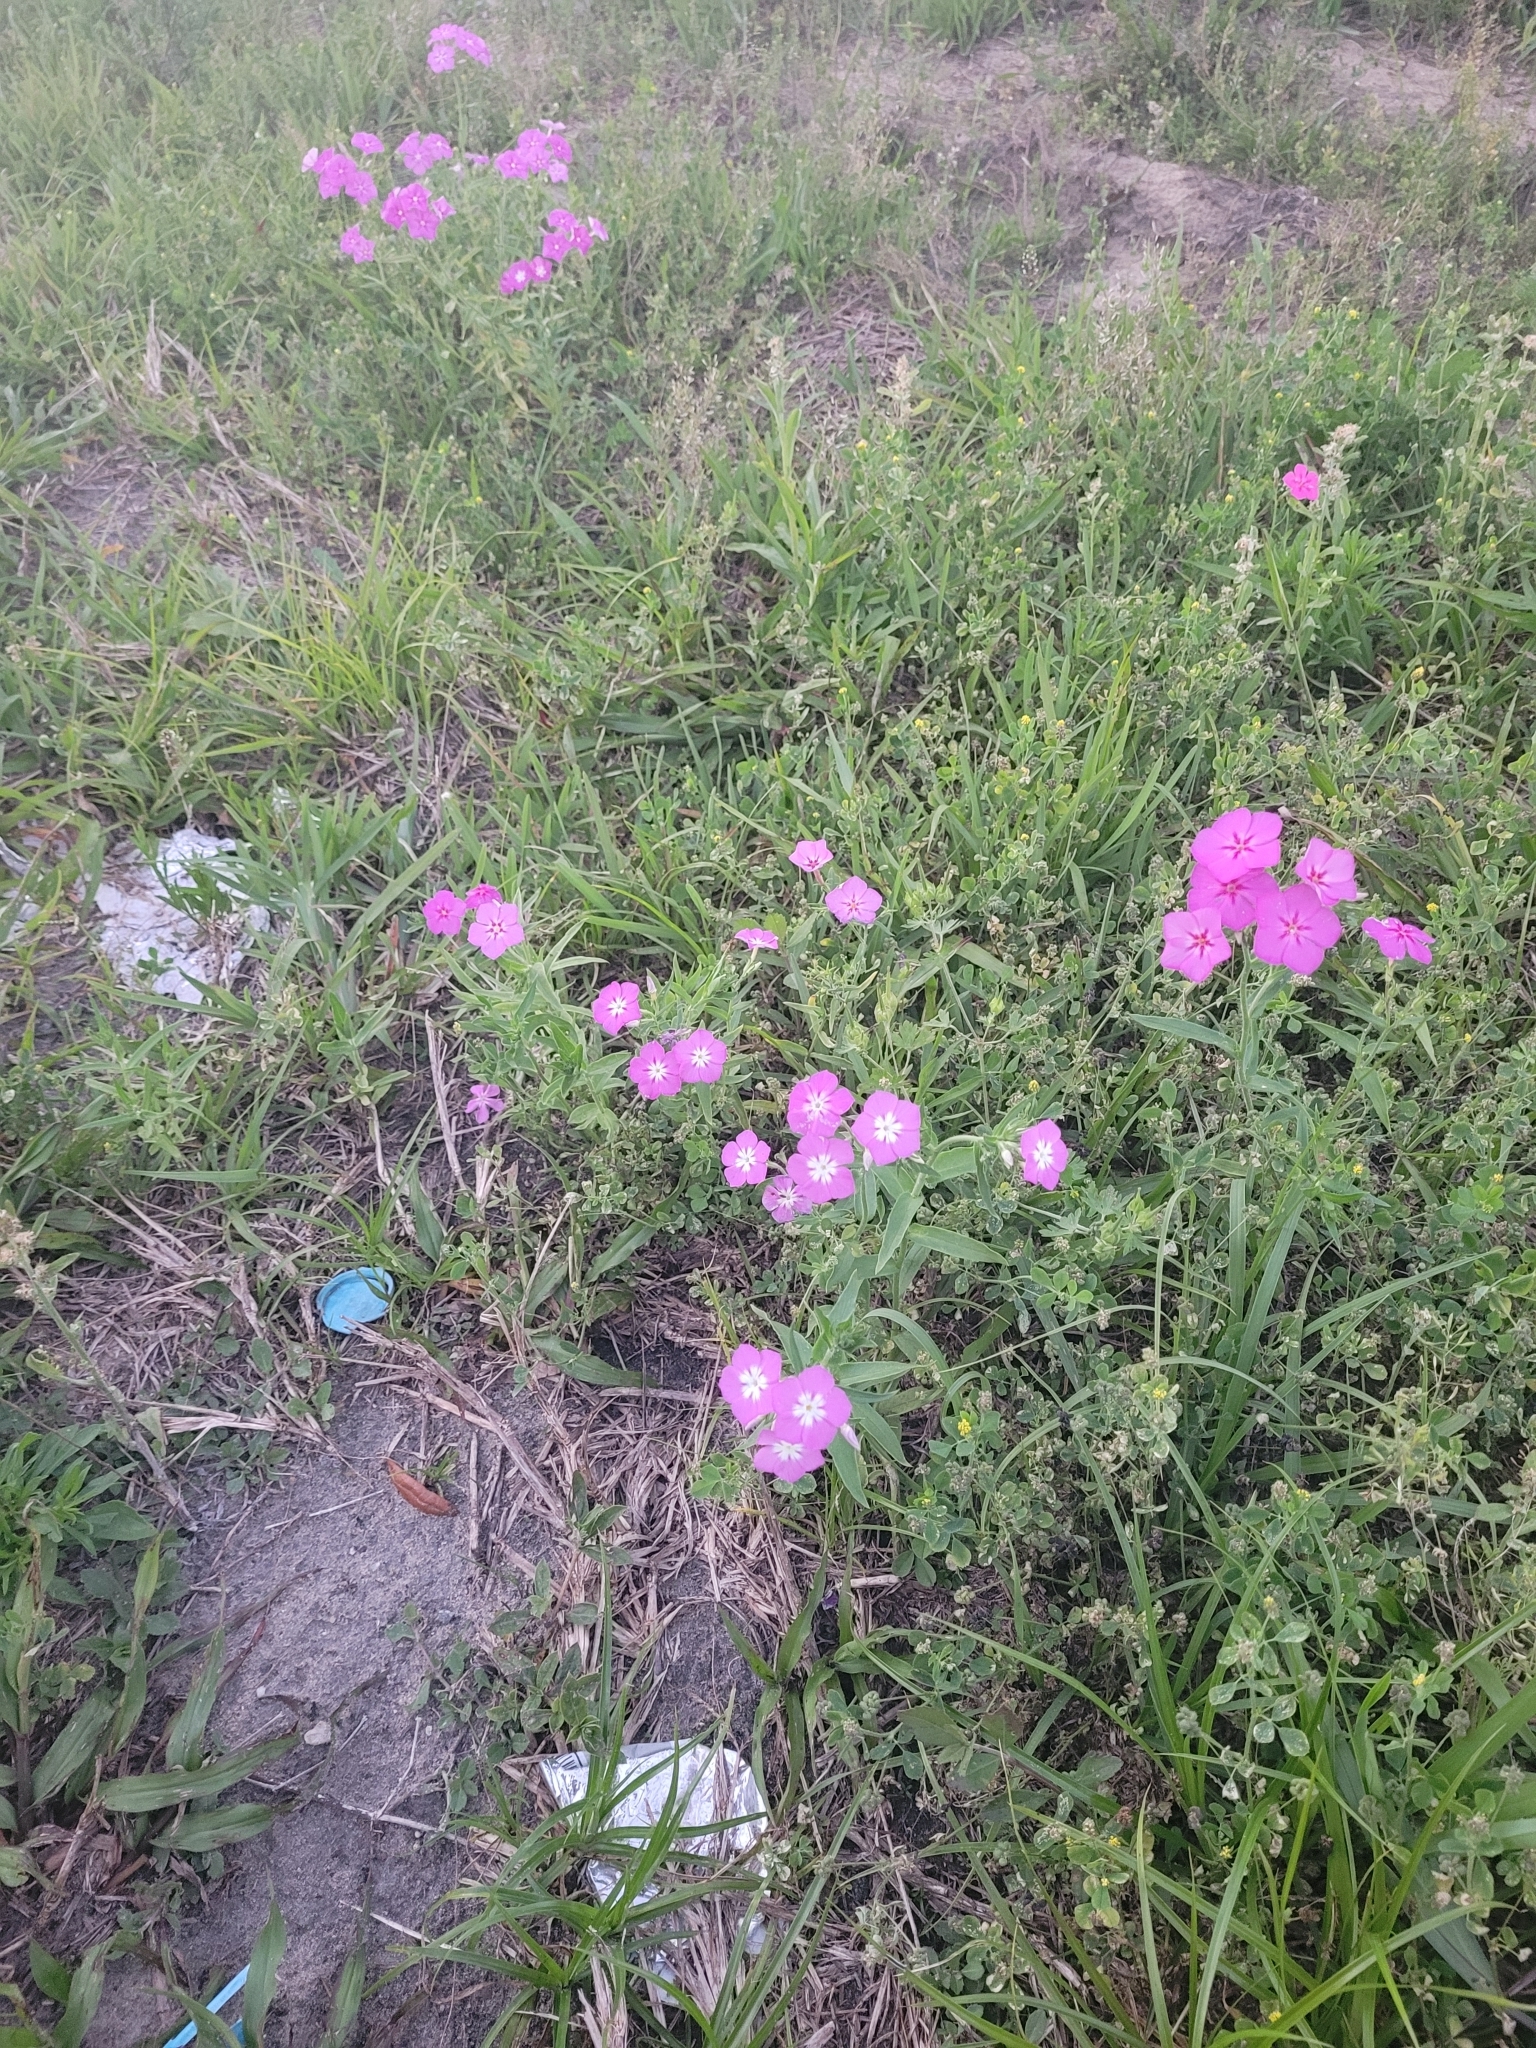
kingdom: Plantae
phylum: Tracheophyta
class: Magnoliopsida
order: Ericales
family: Polemoniaceae
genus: Phlox
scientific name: Phlox drummondii
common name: Drummond's phlox
